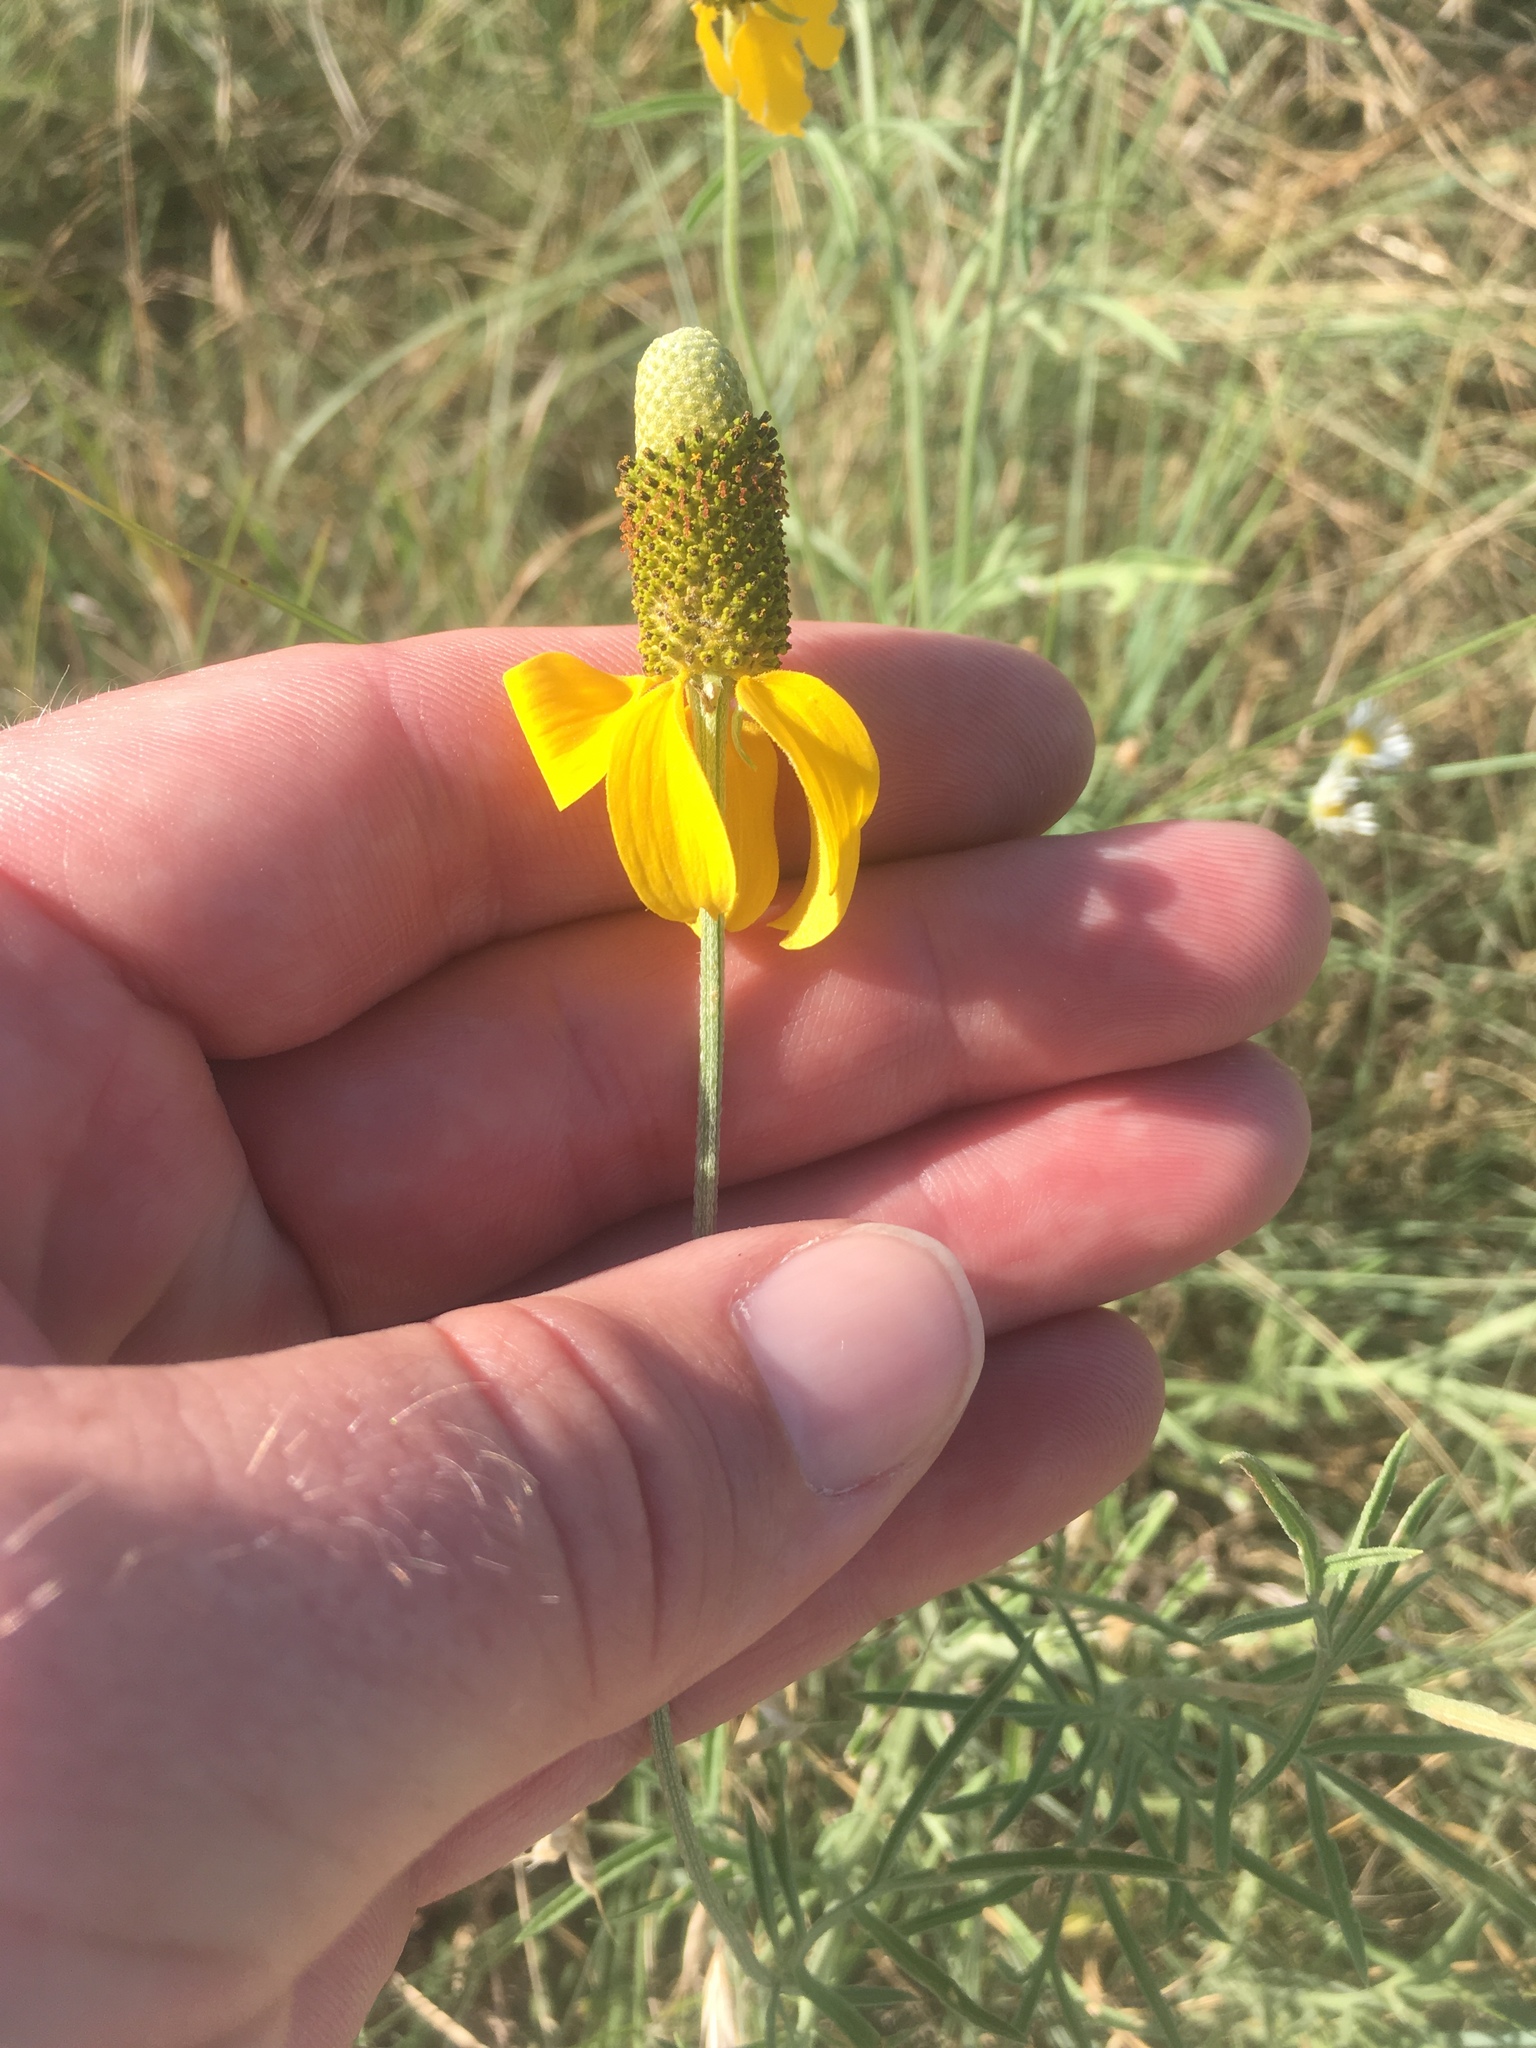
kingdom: Plantae
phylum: Tracheophyta
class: Magnoliopsida
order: Asterales
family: Asteraceae
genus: Ratibida
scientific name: Ratibida columnifera
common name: Prairie coneflower
